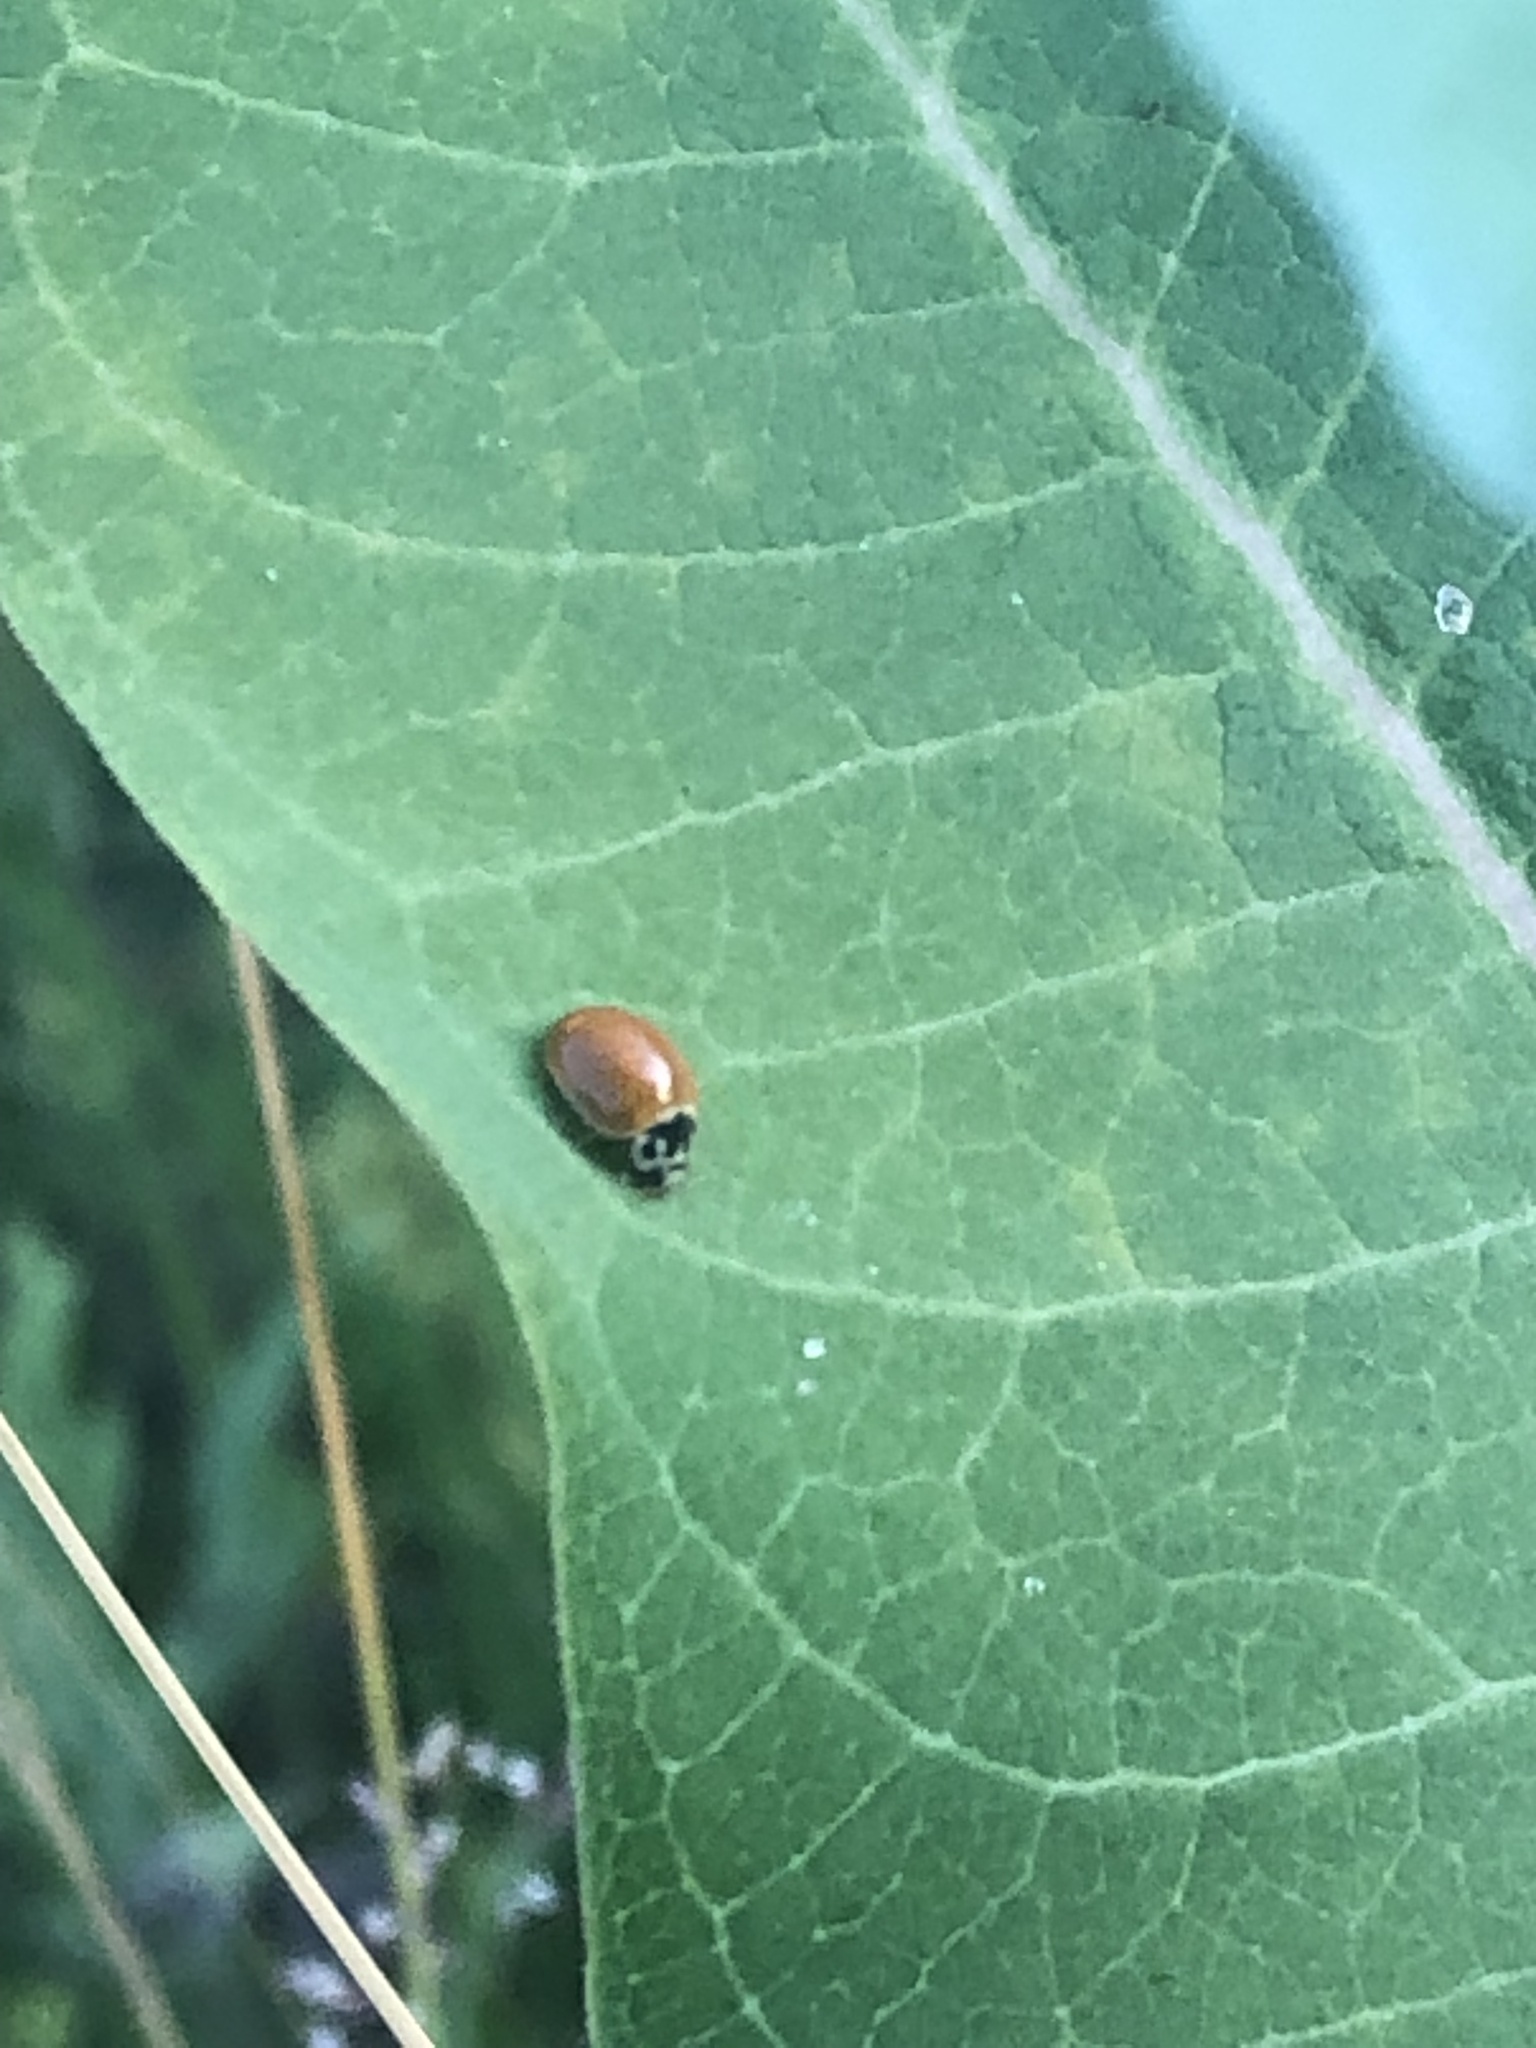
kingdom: Animalia
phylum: Arthropoda
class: Insecta
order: Coleoptera
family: Coccinellidae
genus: Cycloneda
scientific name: Cycloneda munda
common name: Polished lady beetle
